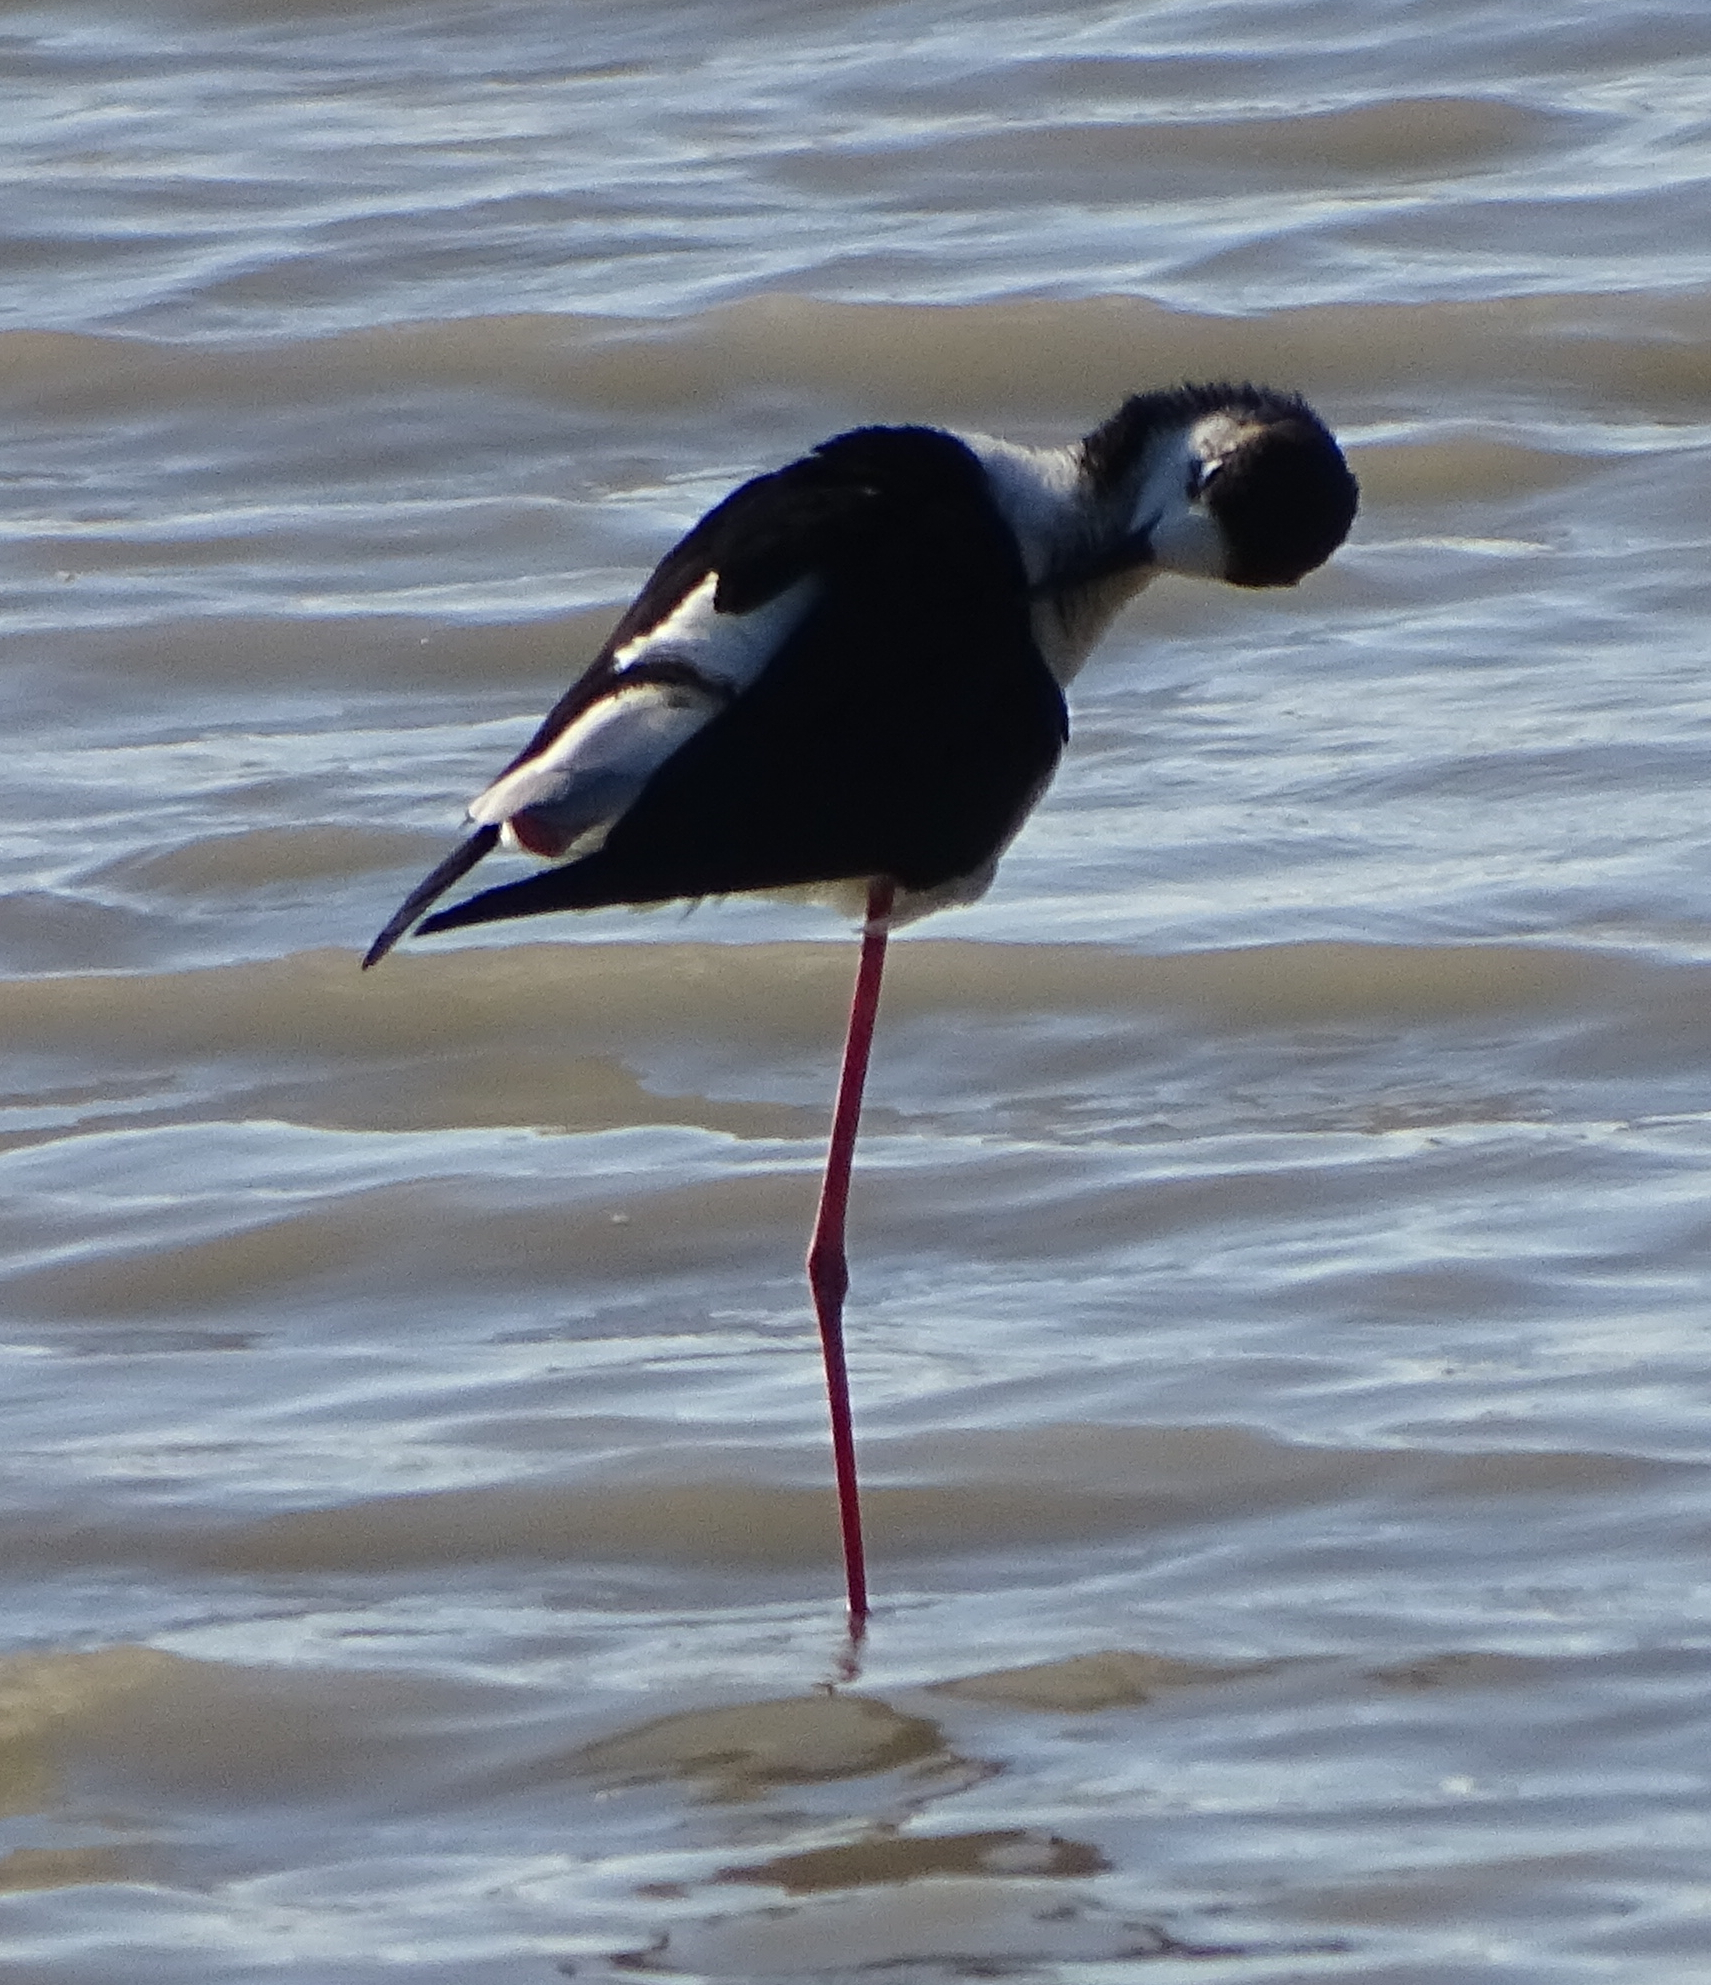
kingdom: Animalia
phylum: Chordata
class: Aves
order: Charadriiformes
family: Recurvirostridae
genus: Himantopus
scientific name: Himantopus himantopus
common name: Black-winged stilt
